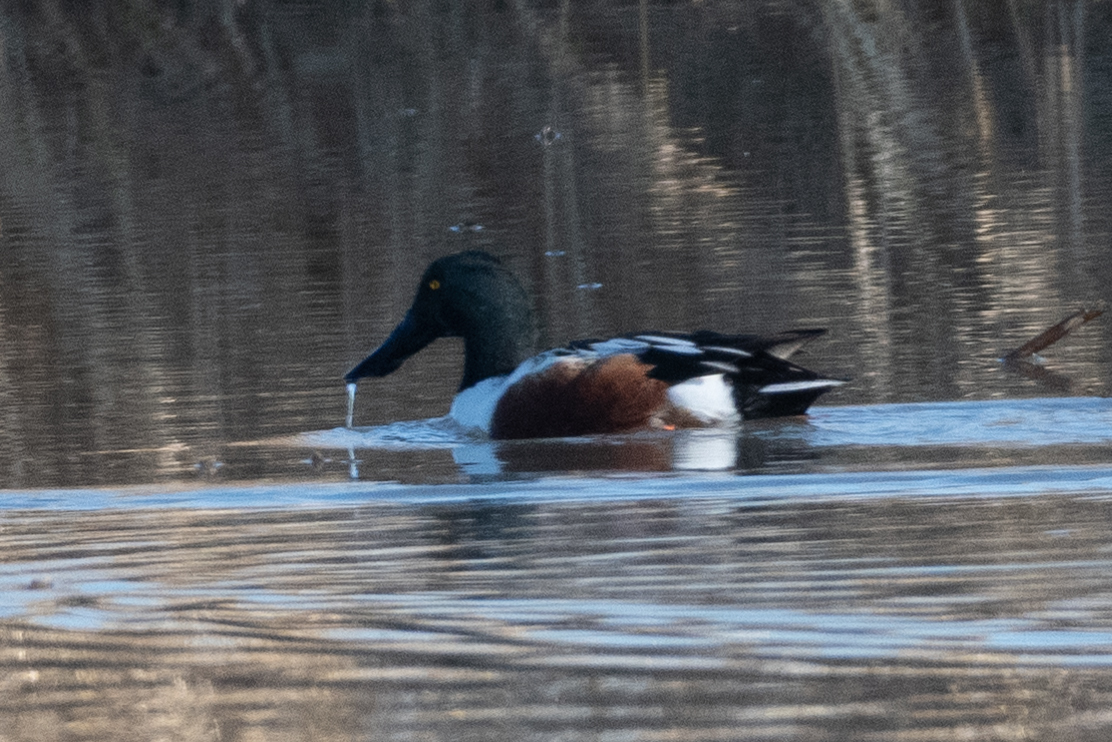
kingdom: Animalia
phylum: Chordata
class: Aves
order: Anseriformes
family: Anatidae
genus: Spatula
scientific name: Spatula clypeata
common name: Northern shoveler
